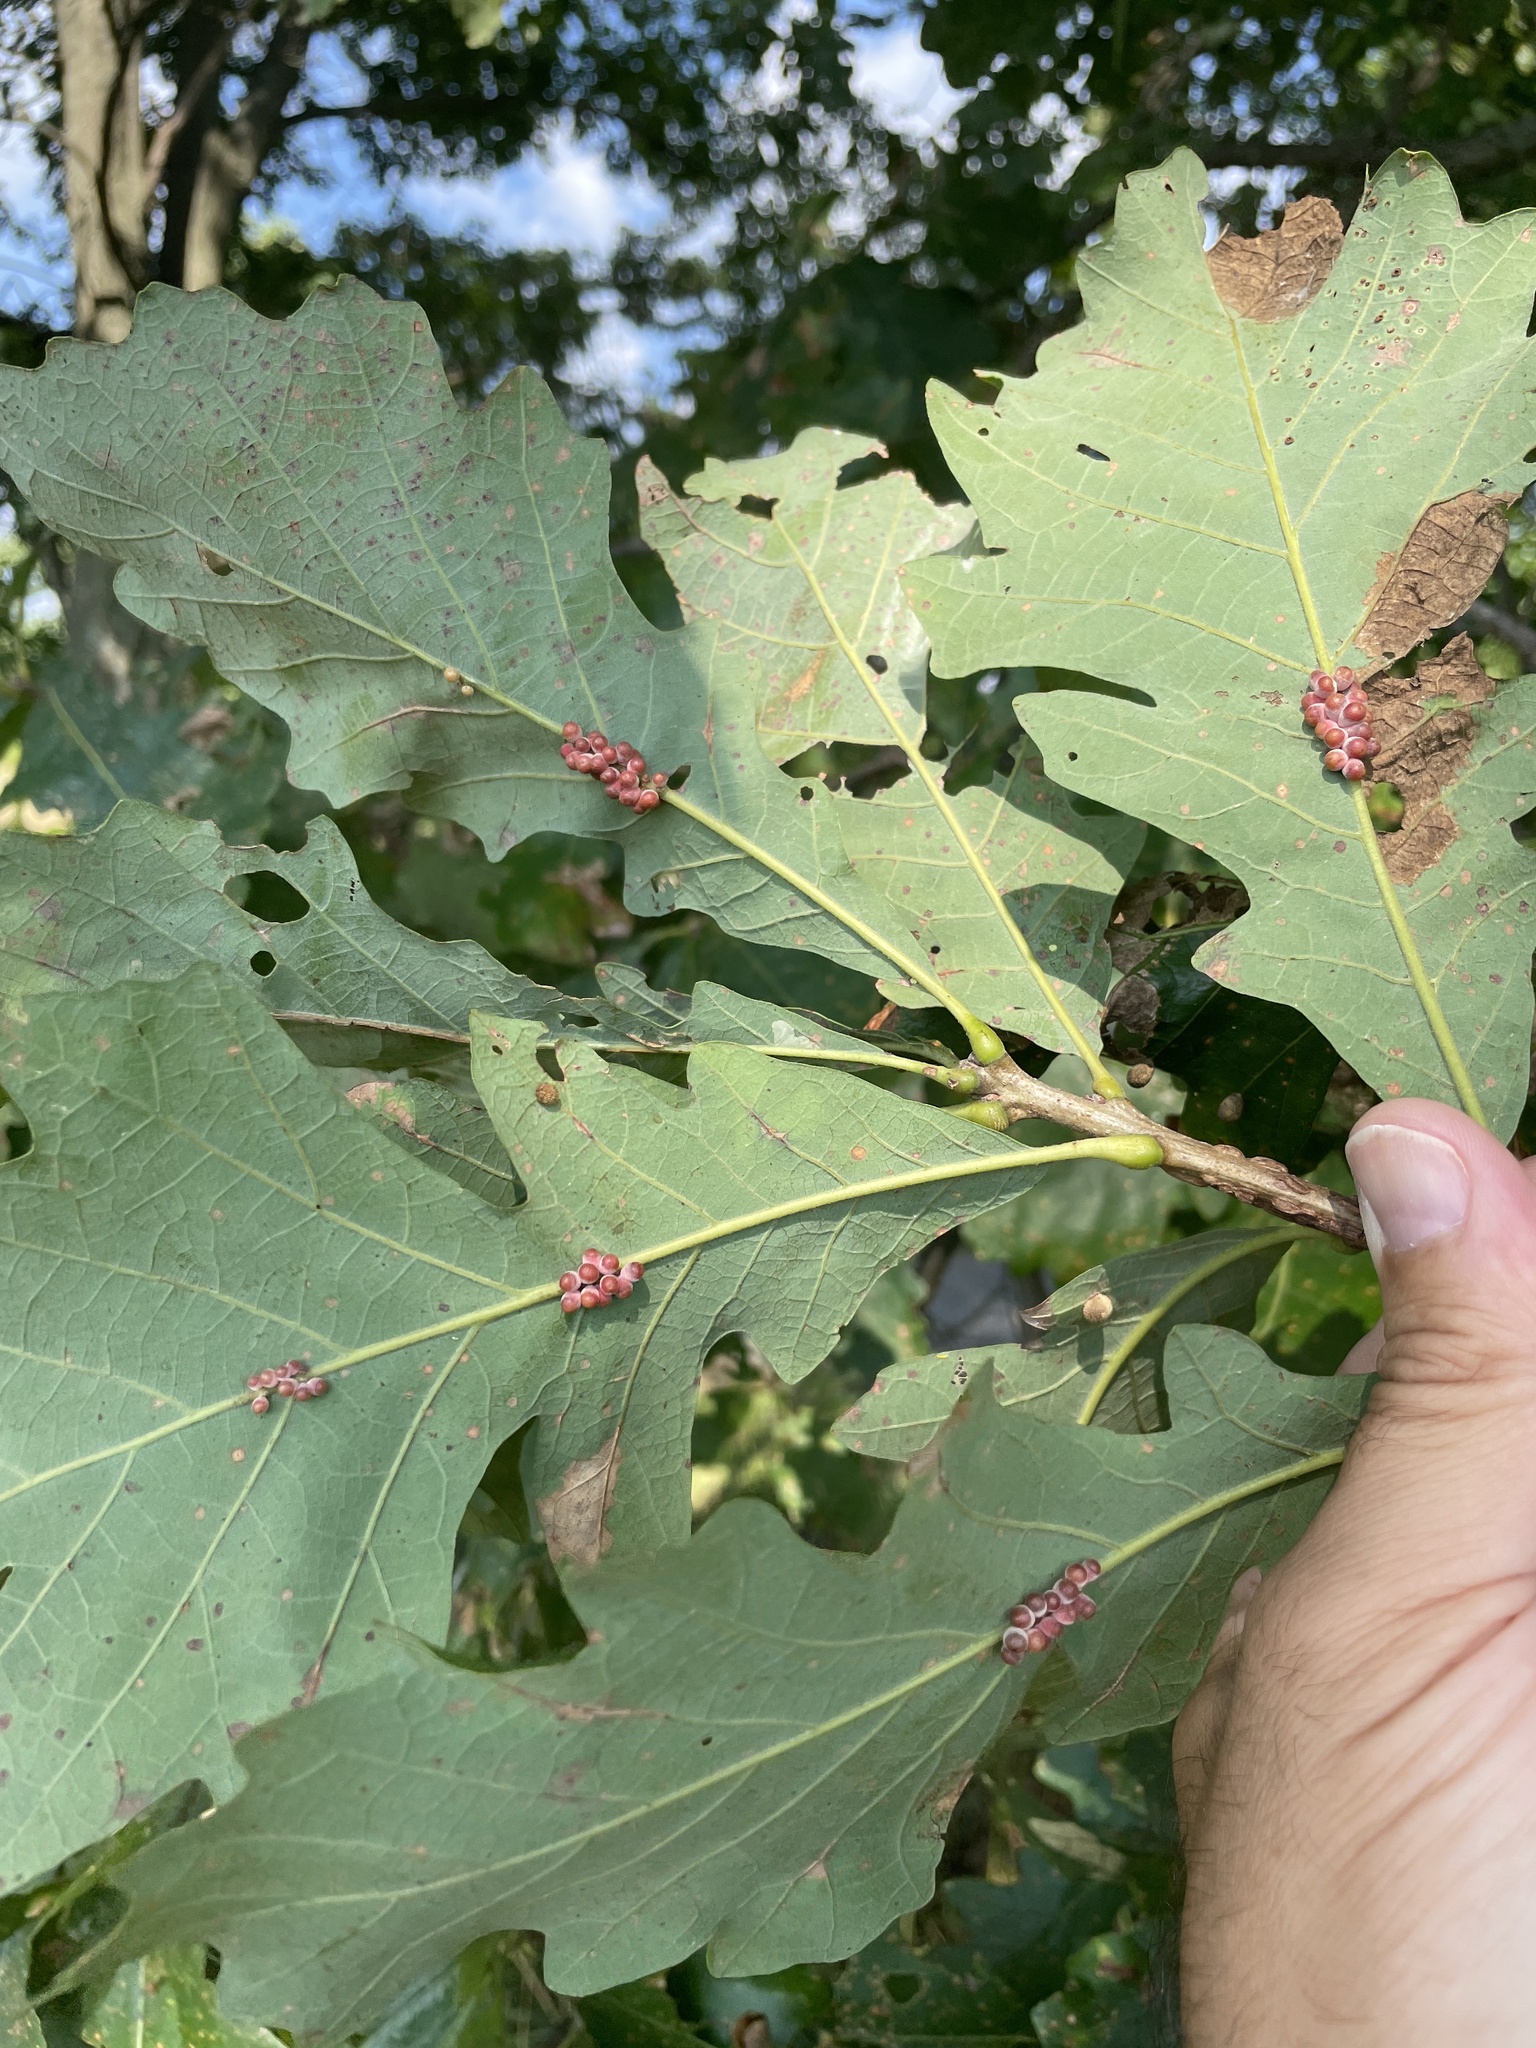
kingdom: Animalia
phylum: Arthropoda
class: Insecta
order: Hymenoptera
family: Cynipidae
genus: Andricus
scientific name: Andricus
